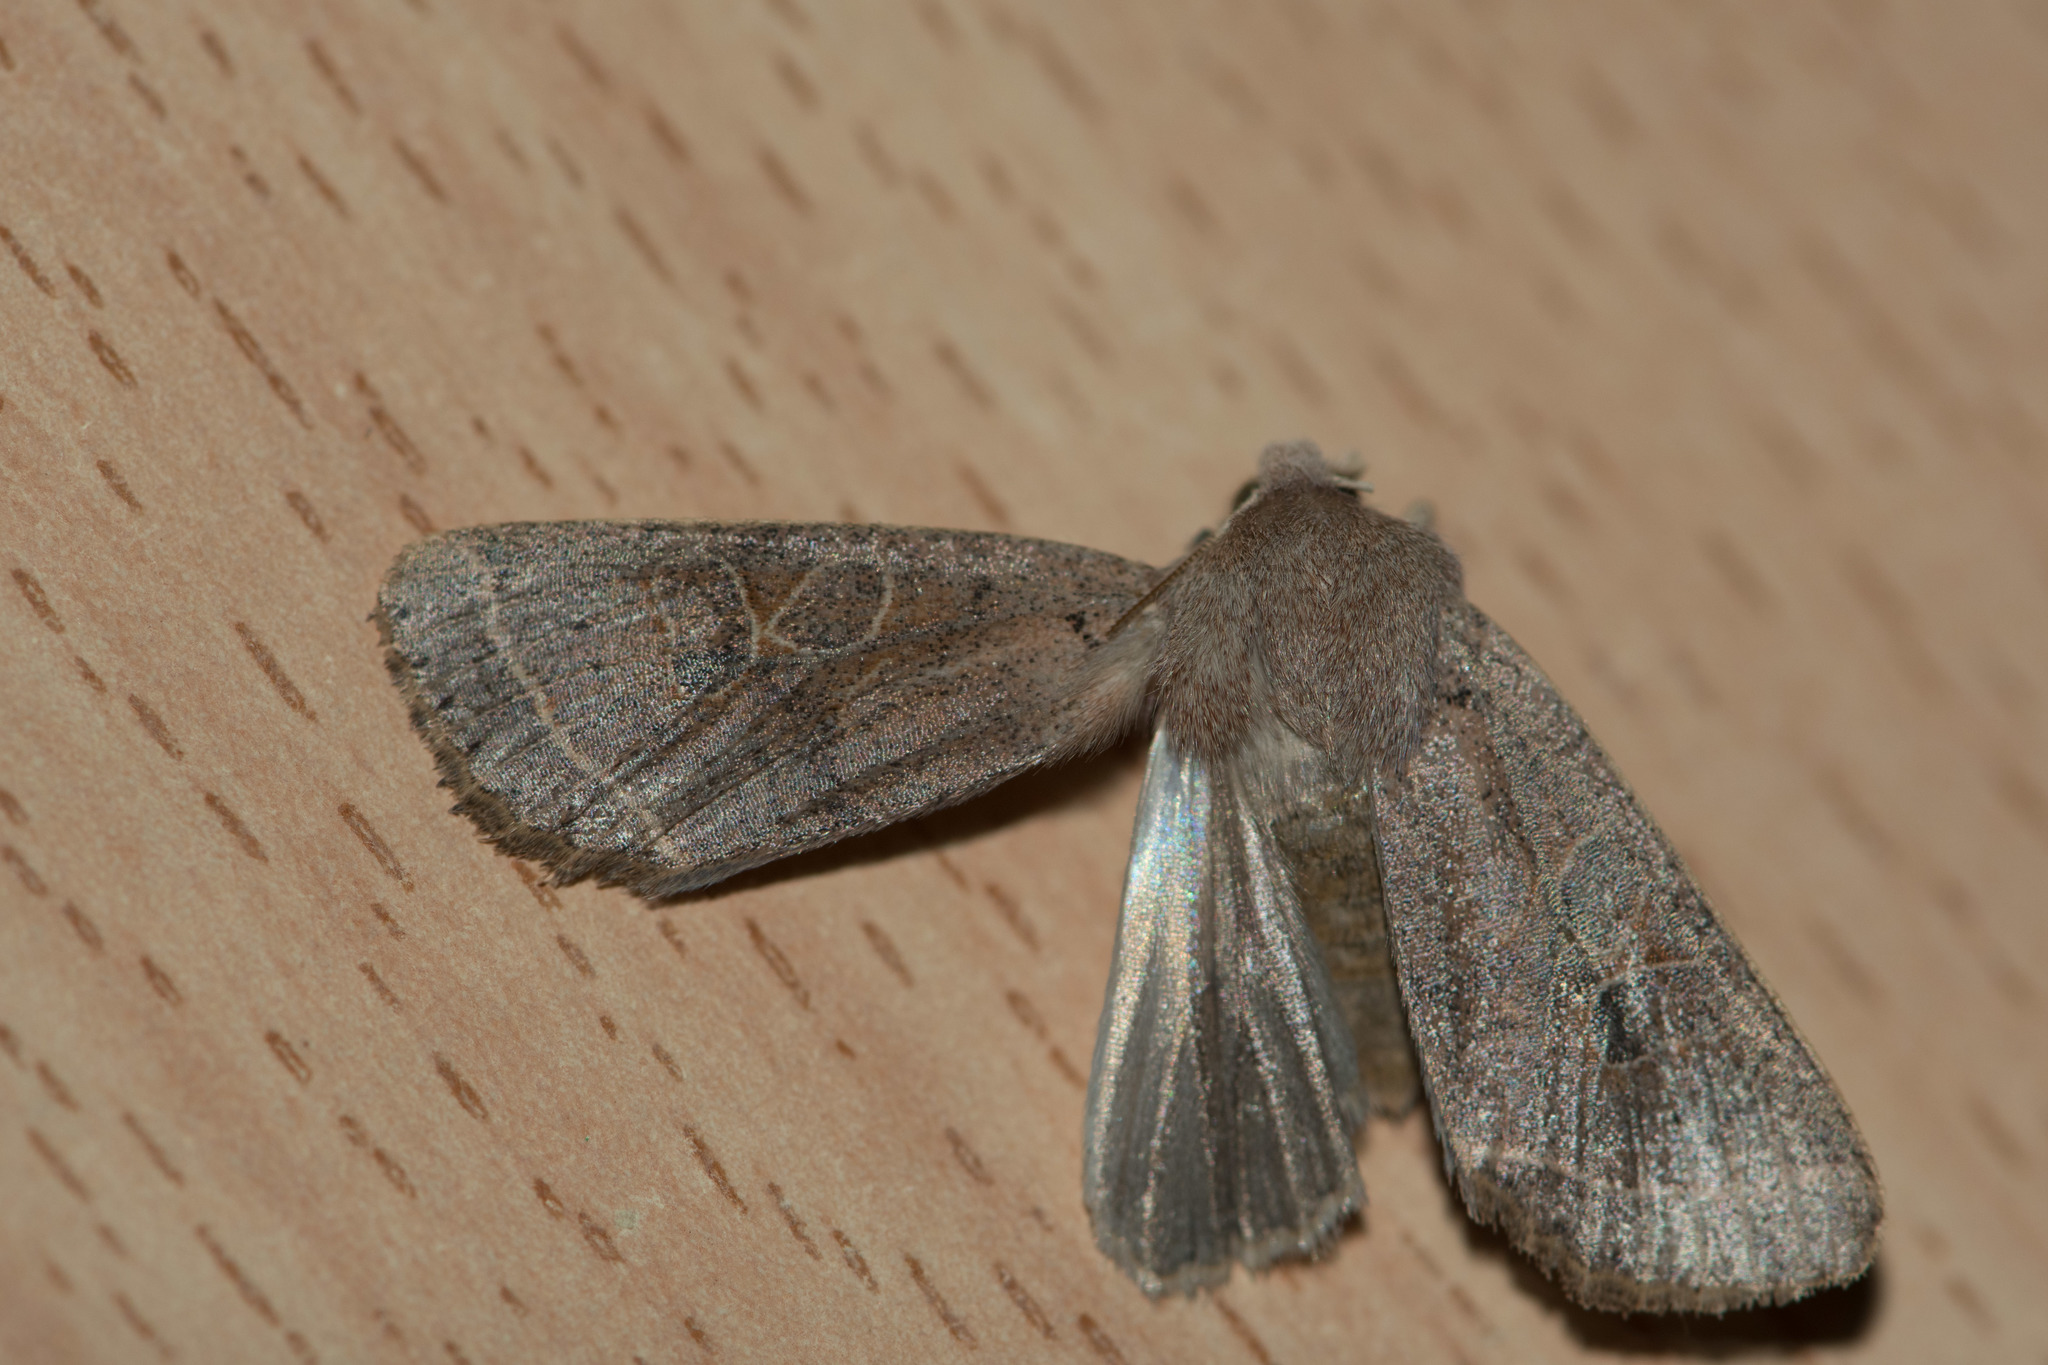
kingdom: Animalia
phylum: Arthropoda
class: Insecta
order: Lepidoptera
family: Noctuidae
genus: Orthosia
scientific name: Orthosia cerasi
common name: Common quaker
